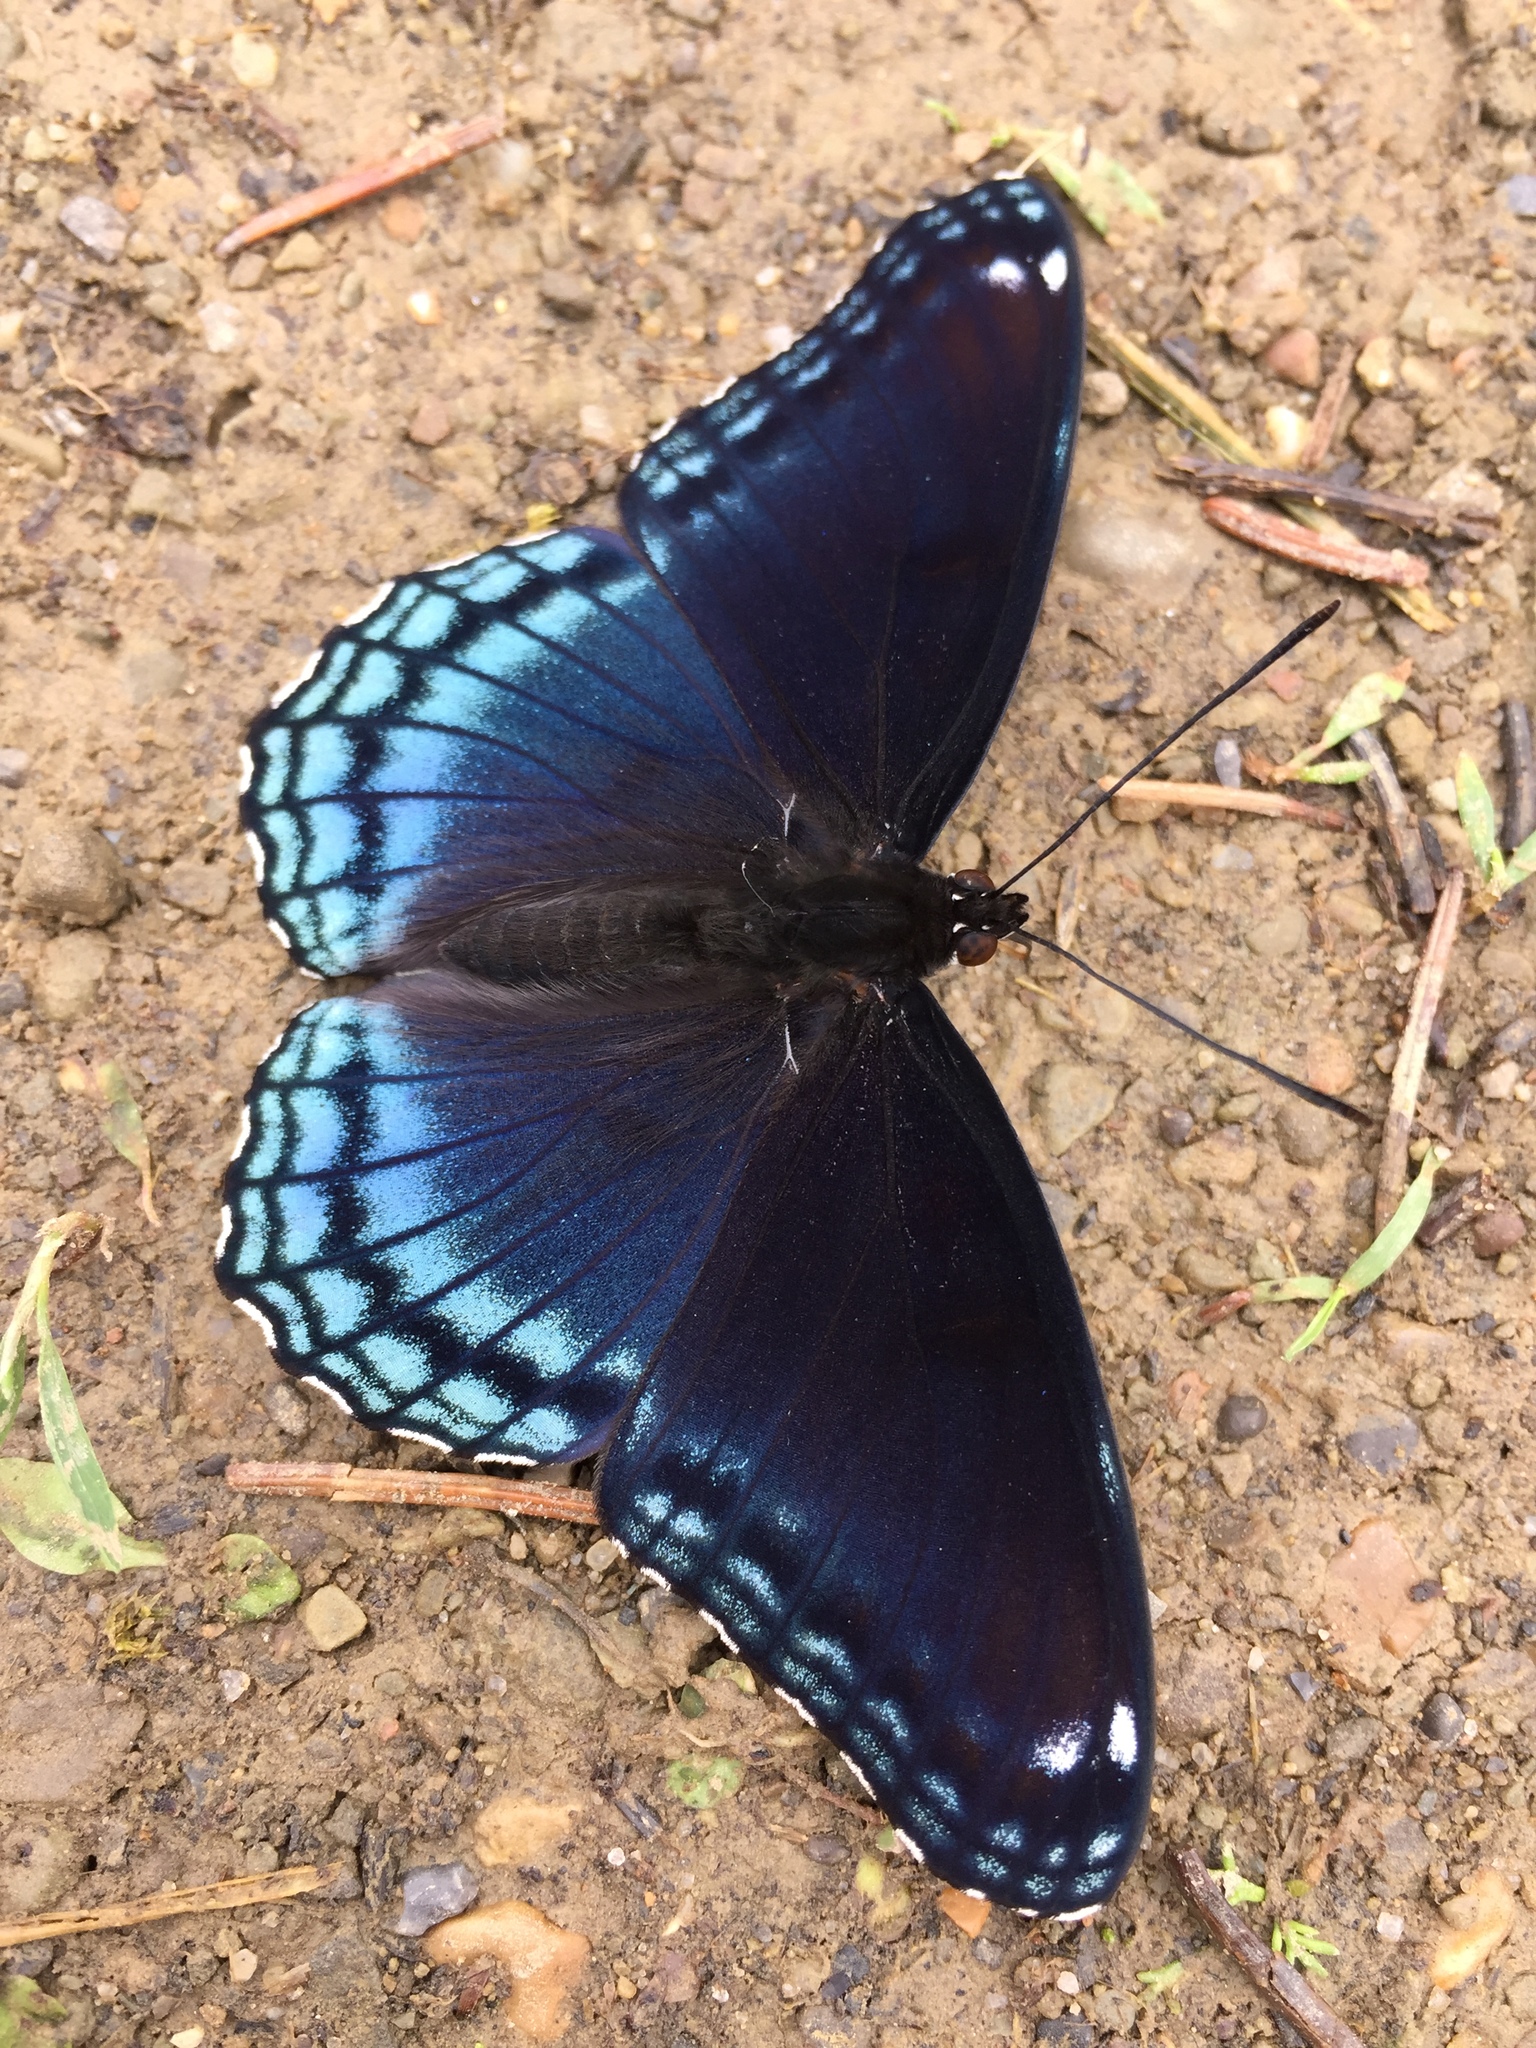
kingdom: Animalia
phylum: Arthropoda
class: Insecta
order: Lepidoptera
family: Nymphalidae
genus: Limenitis
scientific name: Limenitis arthemis
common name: Red-spotted admiral
